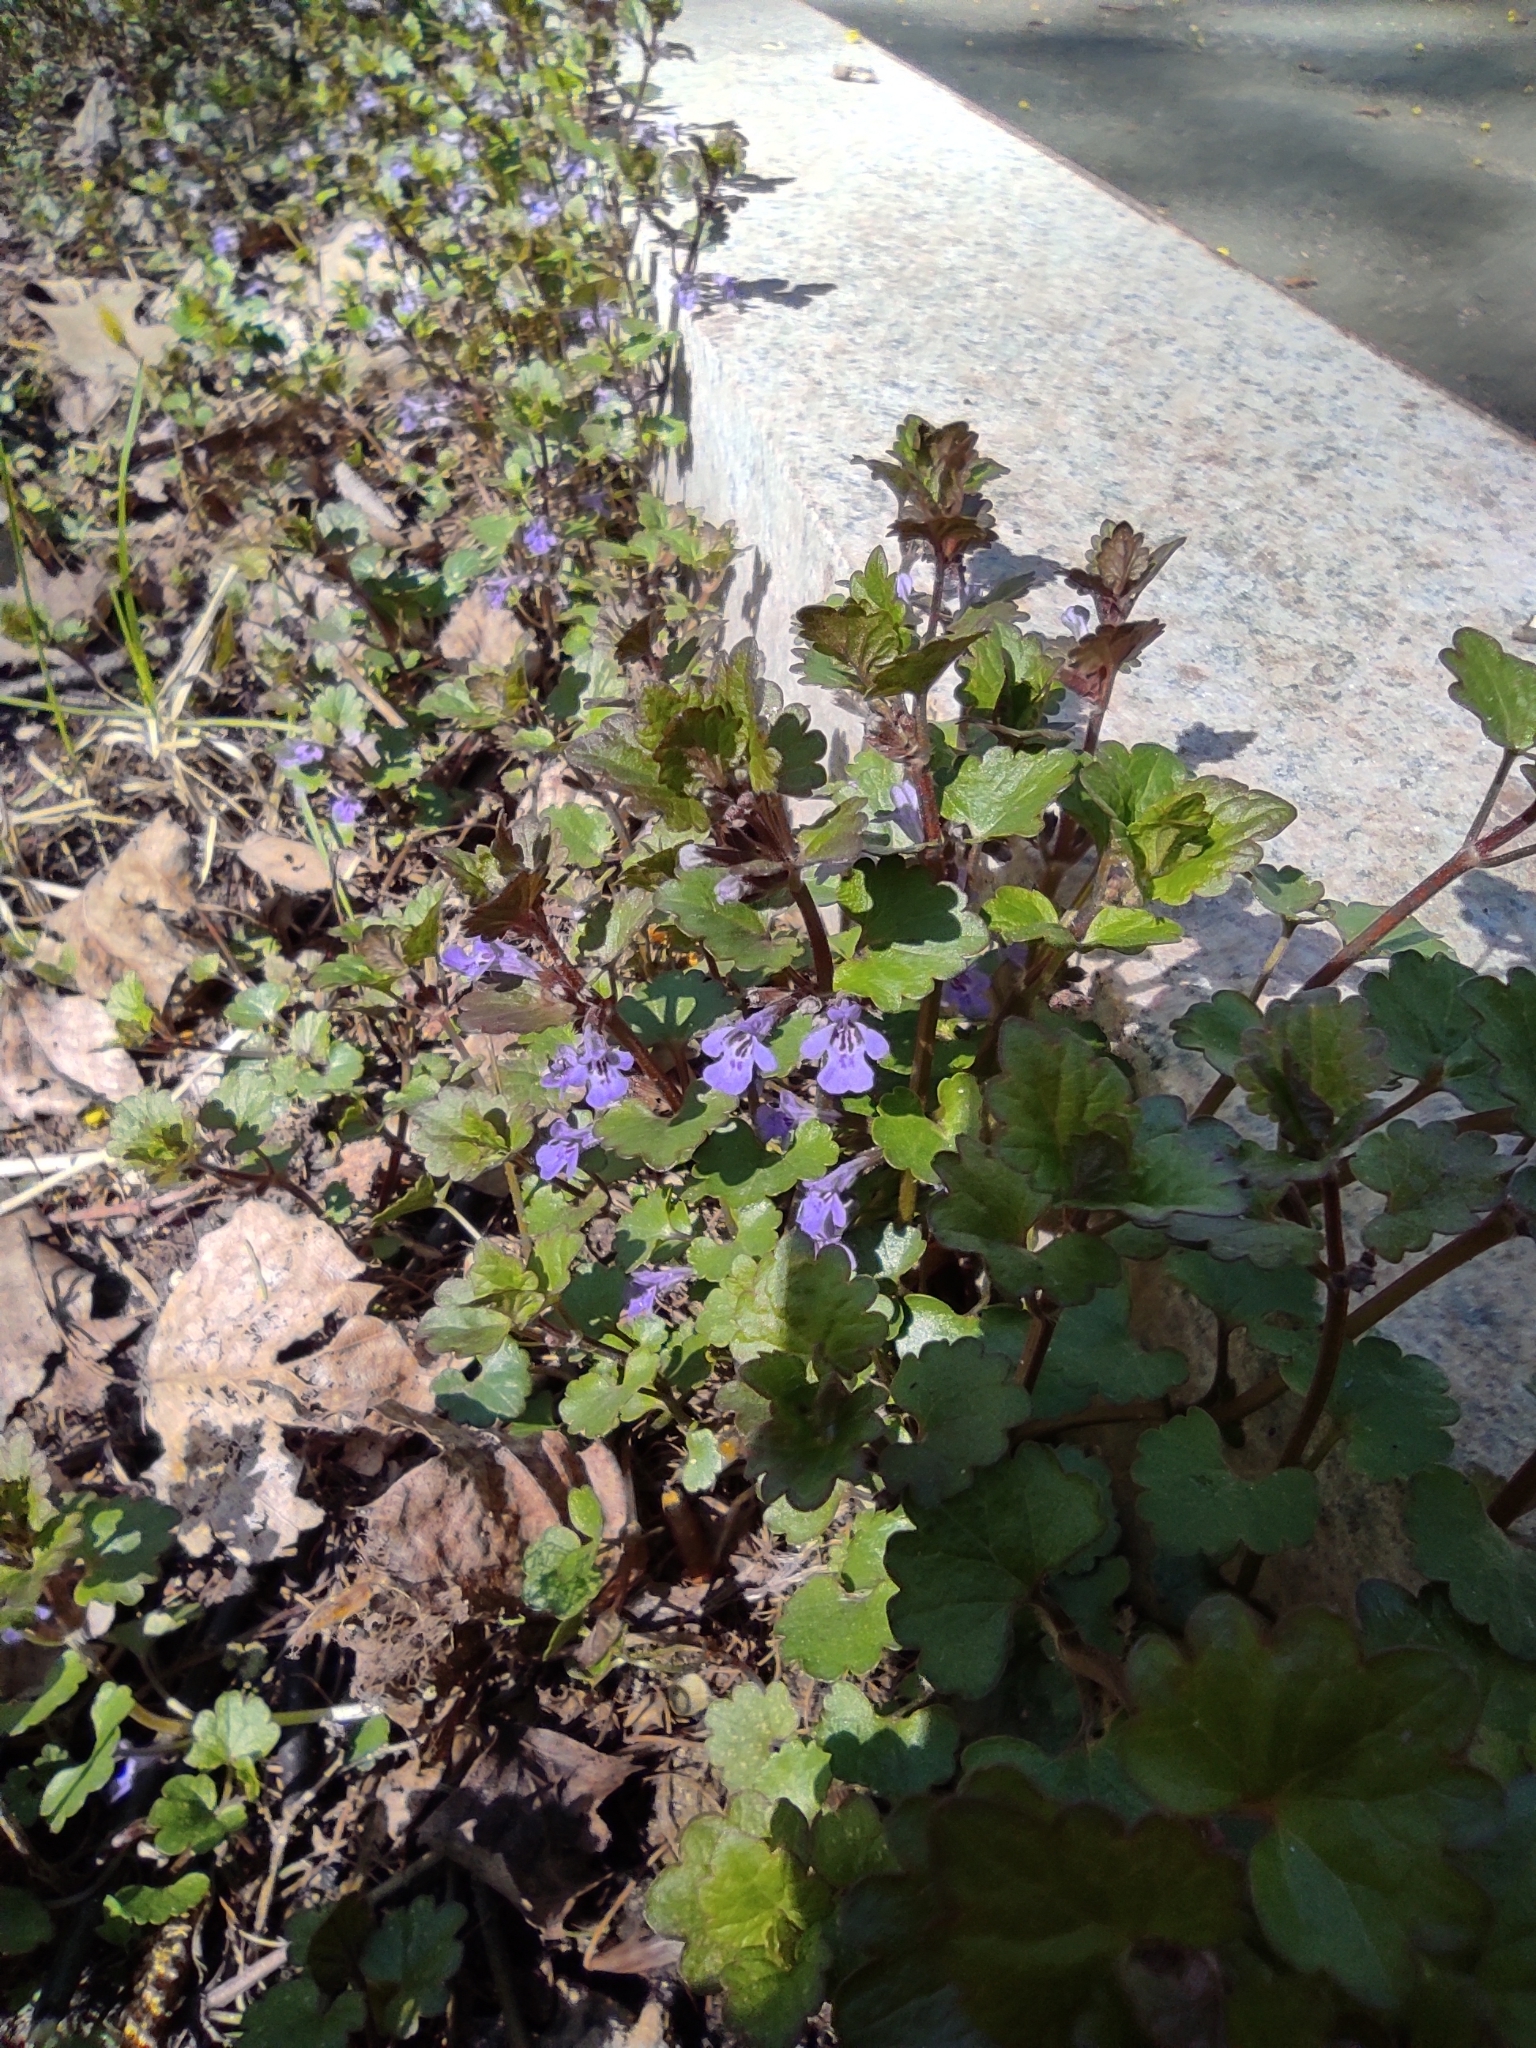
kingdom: Plantae
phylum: Tracheophyta
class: Magnoliopsida
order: Lamiales
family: Lamiaceae
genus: Glechoma
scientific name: Glechoma hederacea
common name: Ground ivy
